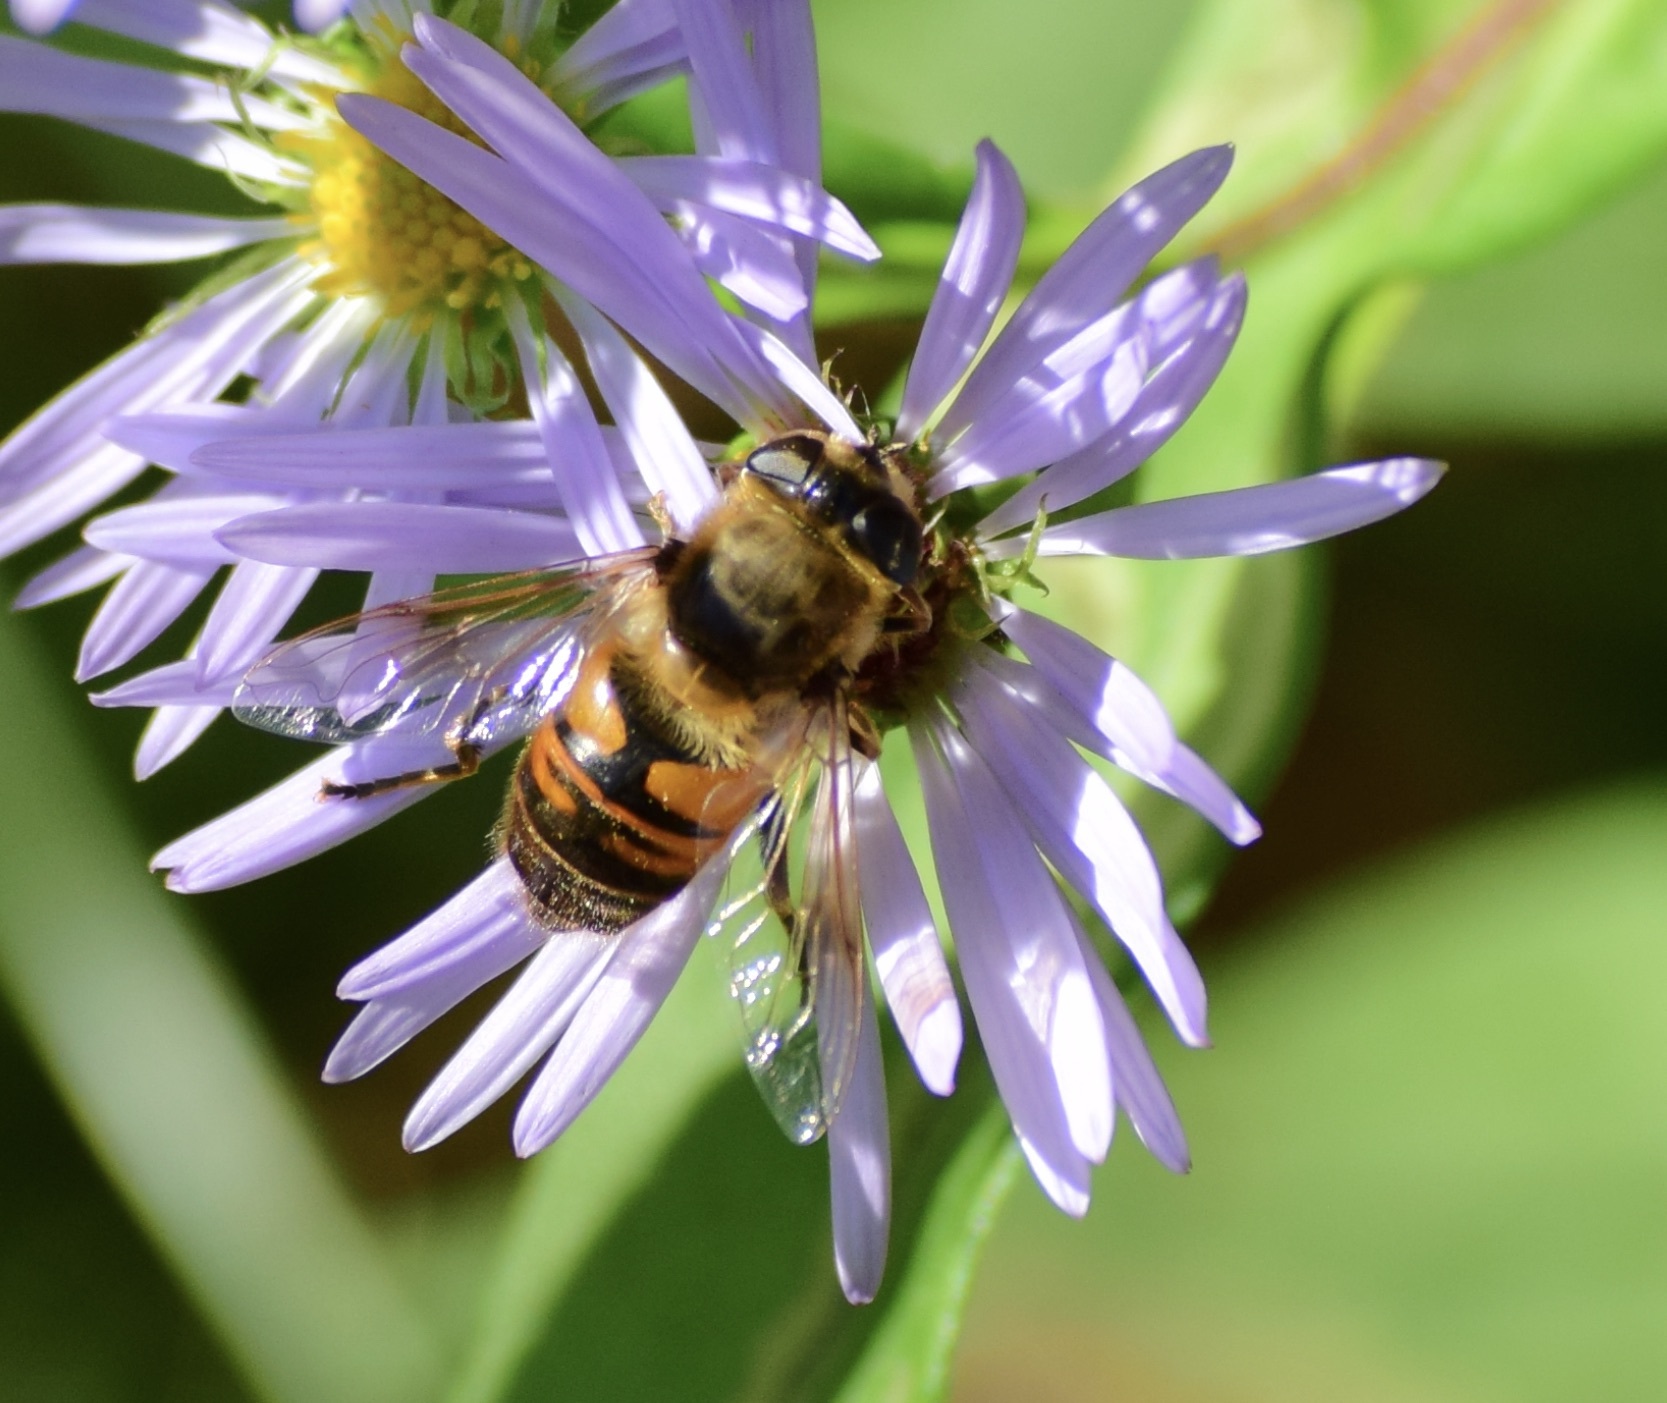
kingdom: Animalia
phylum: Arthropoda
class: Insecta
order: Diptera
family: Syrphidae
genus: Eristalis
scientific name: Eristalis tenax
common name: Drone fly
